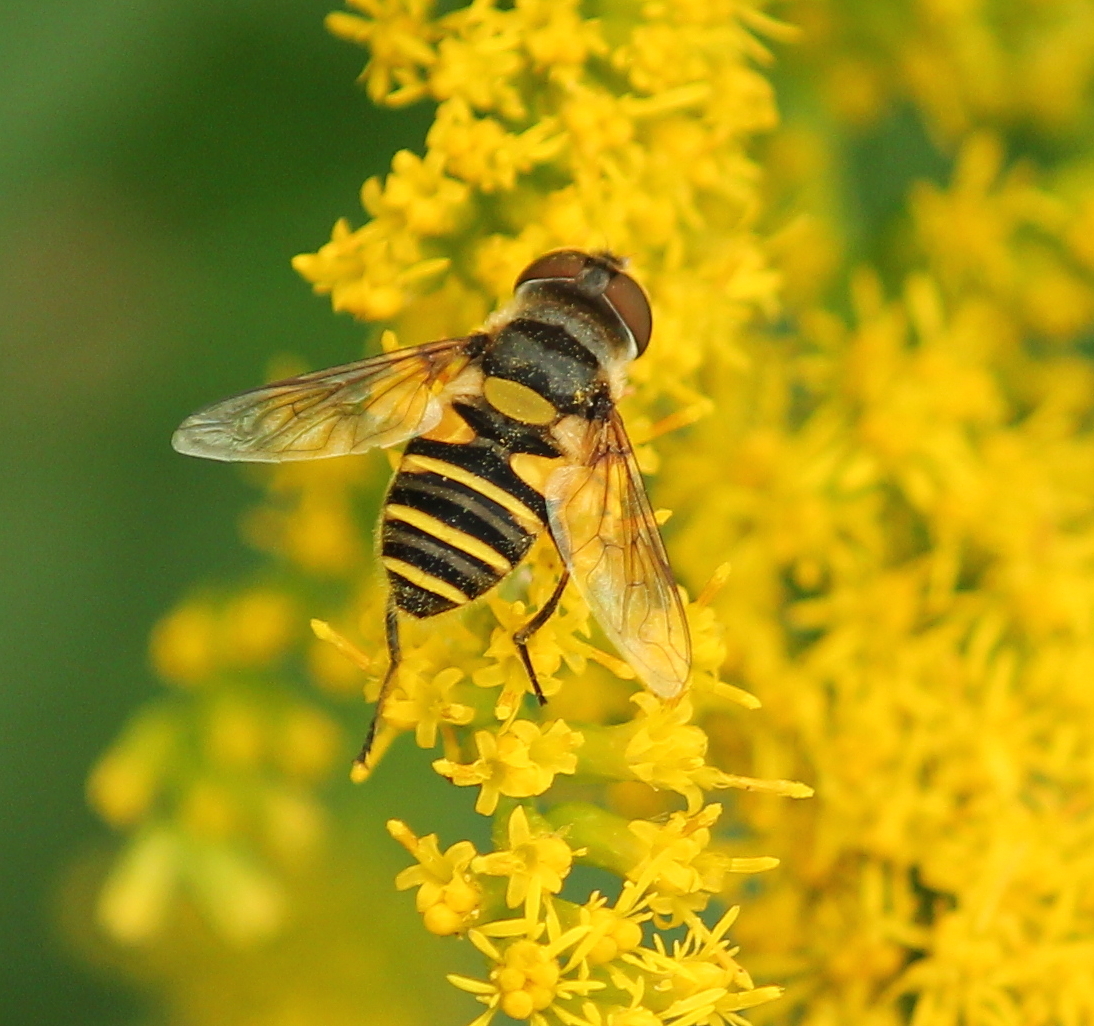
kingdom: Animalia
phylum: Arthropoda
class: Insecta
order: Diptera
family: Syrphidae
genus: Eristalis
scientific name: Eristalis transversa
